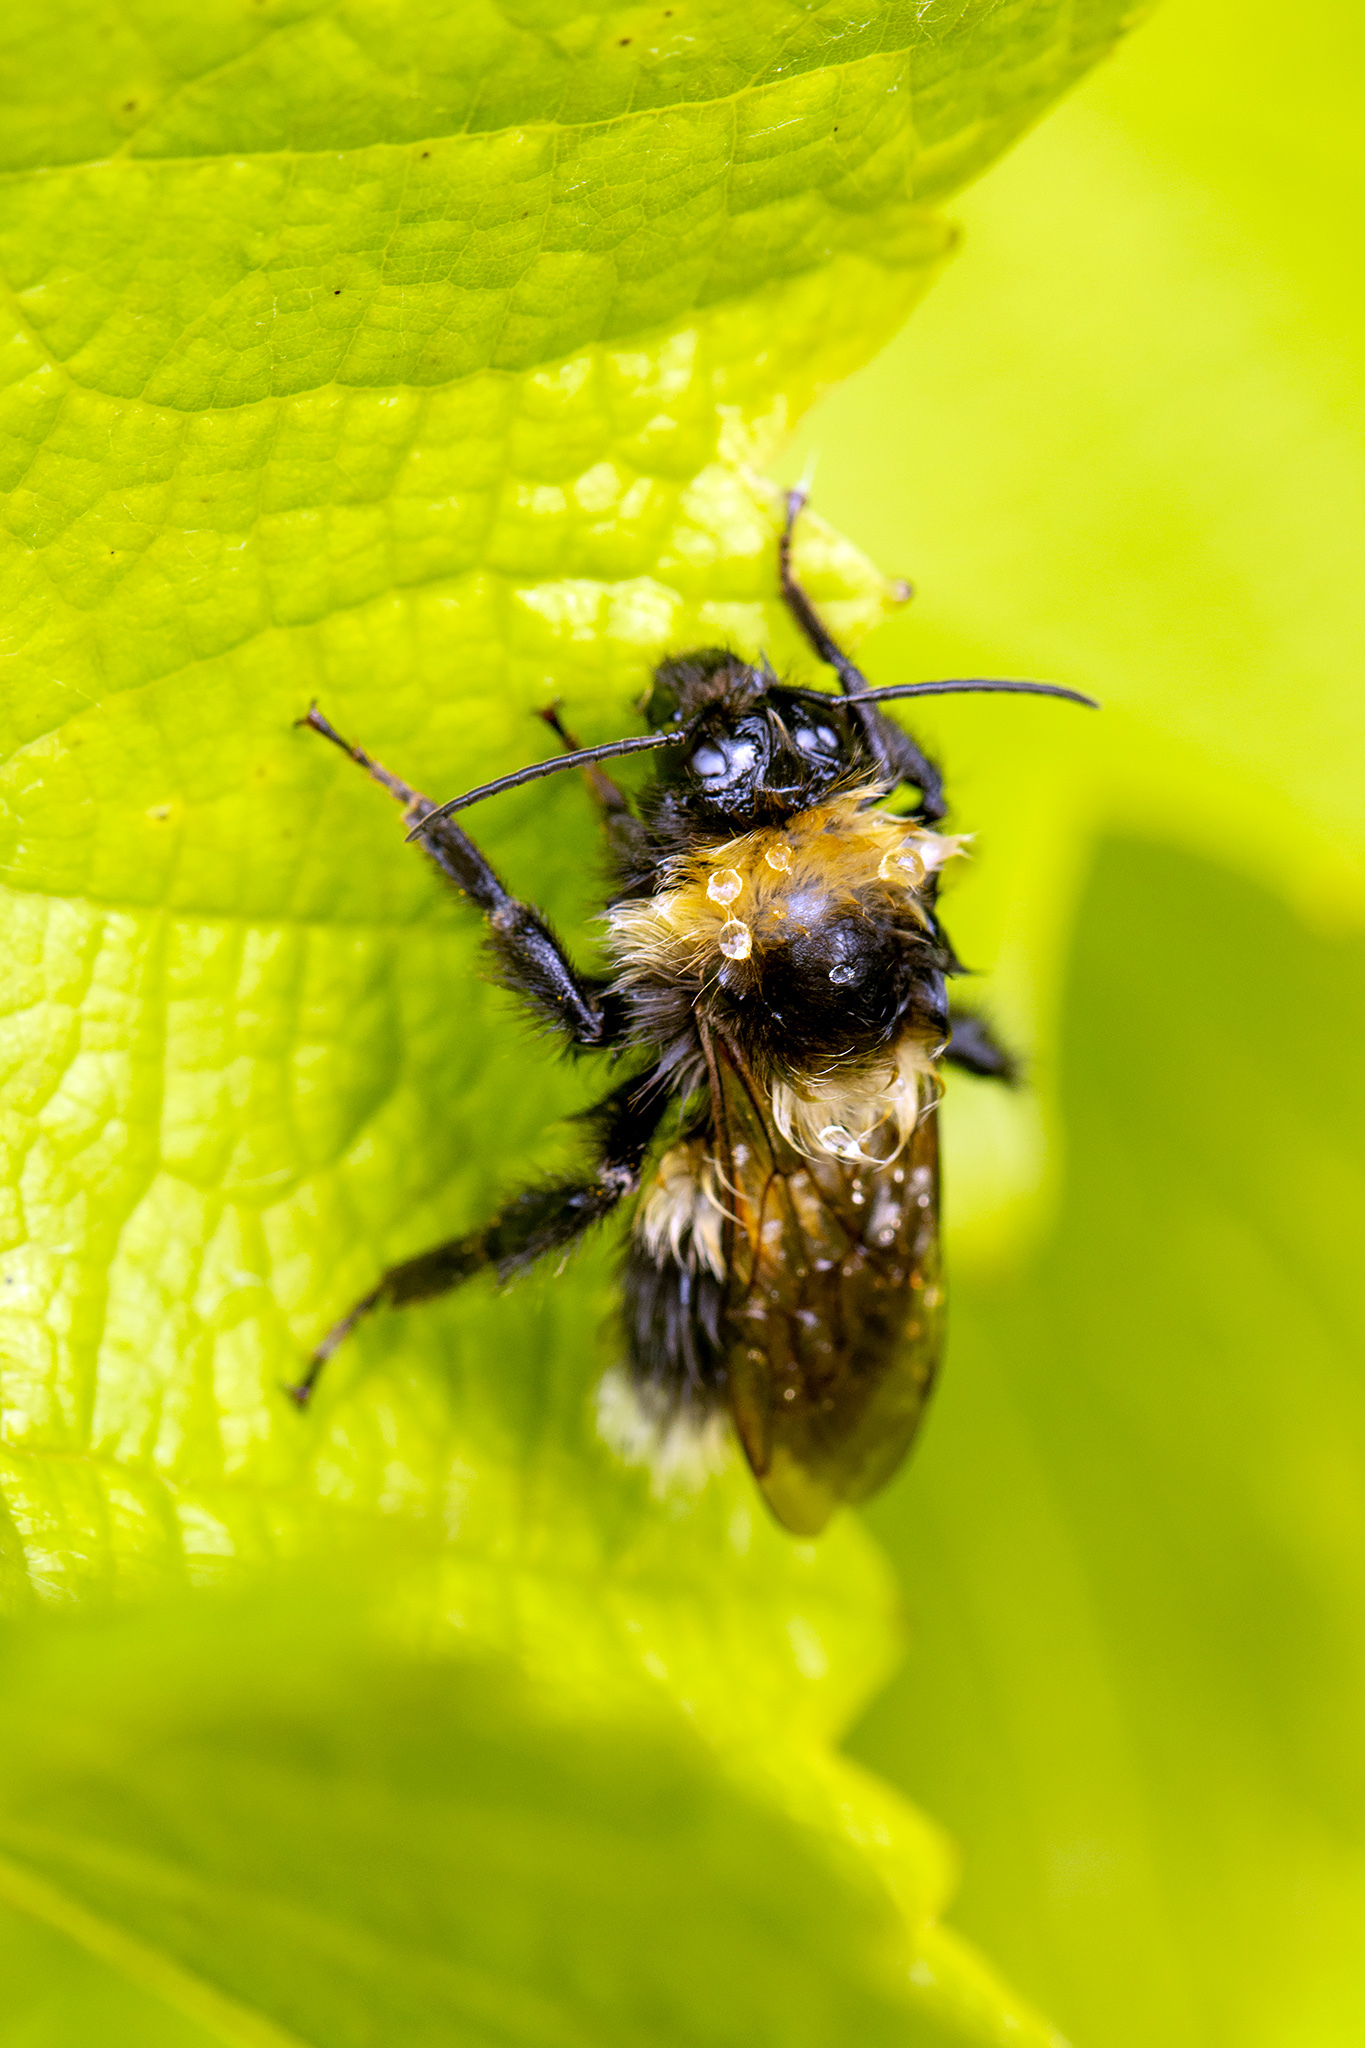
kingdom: Animalia
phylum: Arthropoda
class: Insecta
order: Hymenoptera
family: Apidae
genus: Bombus
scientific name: Bombus hortorum
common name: Garden bumblebee
